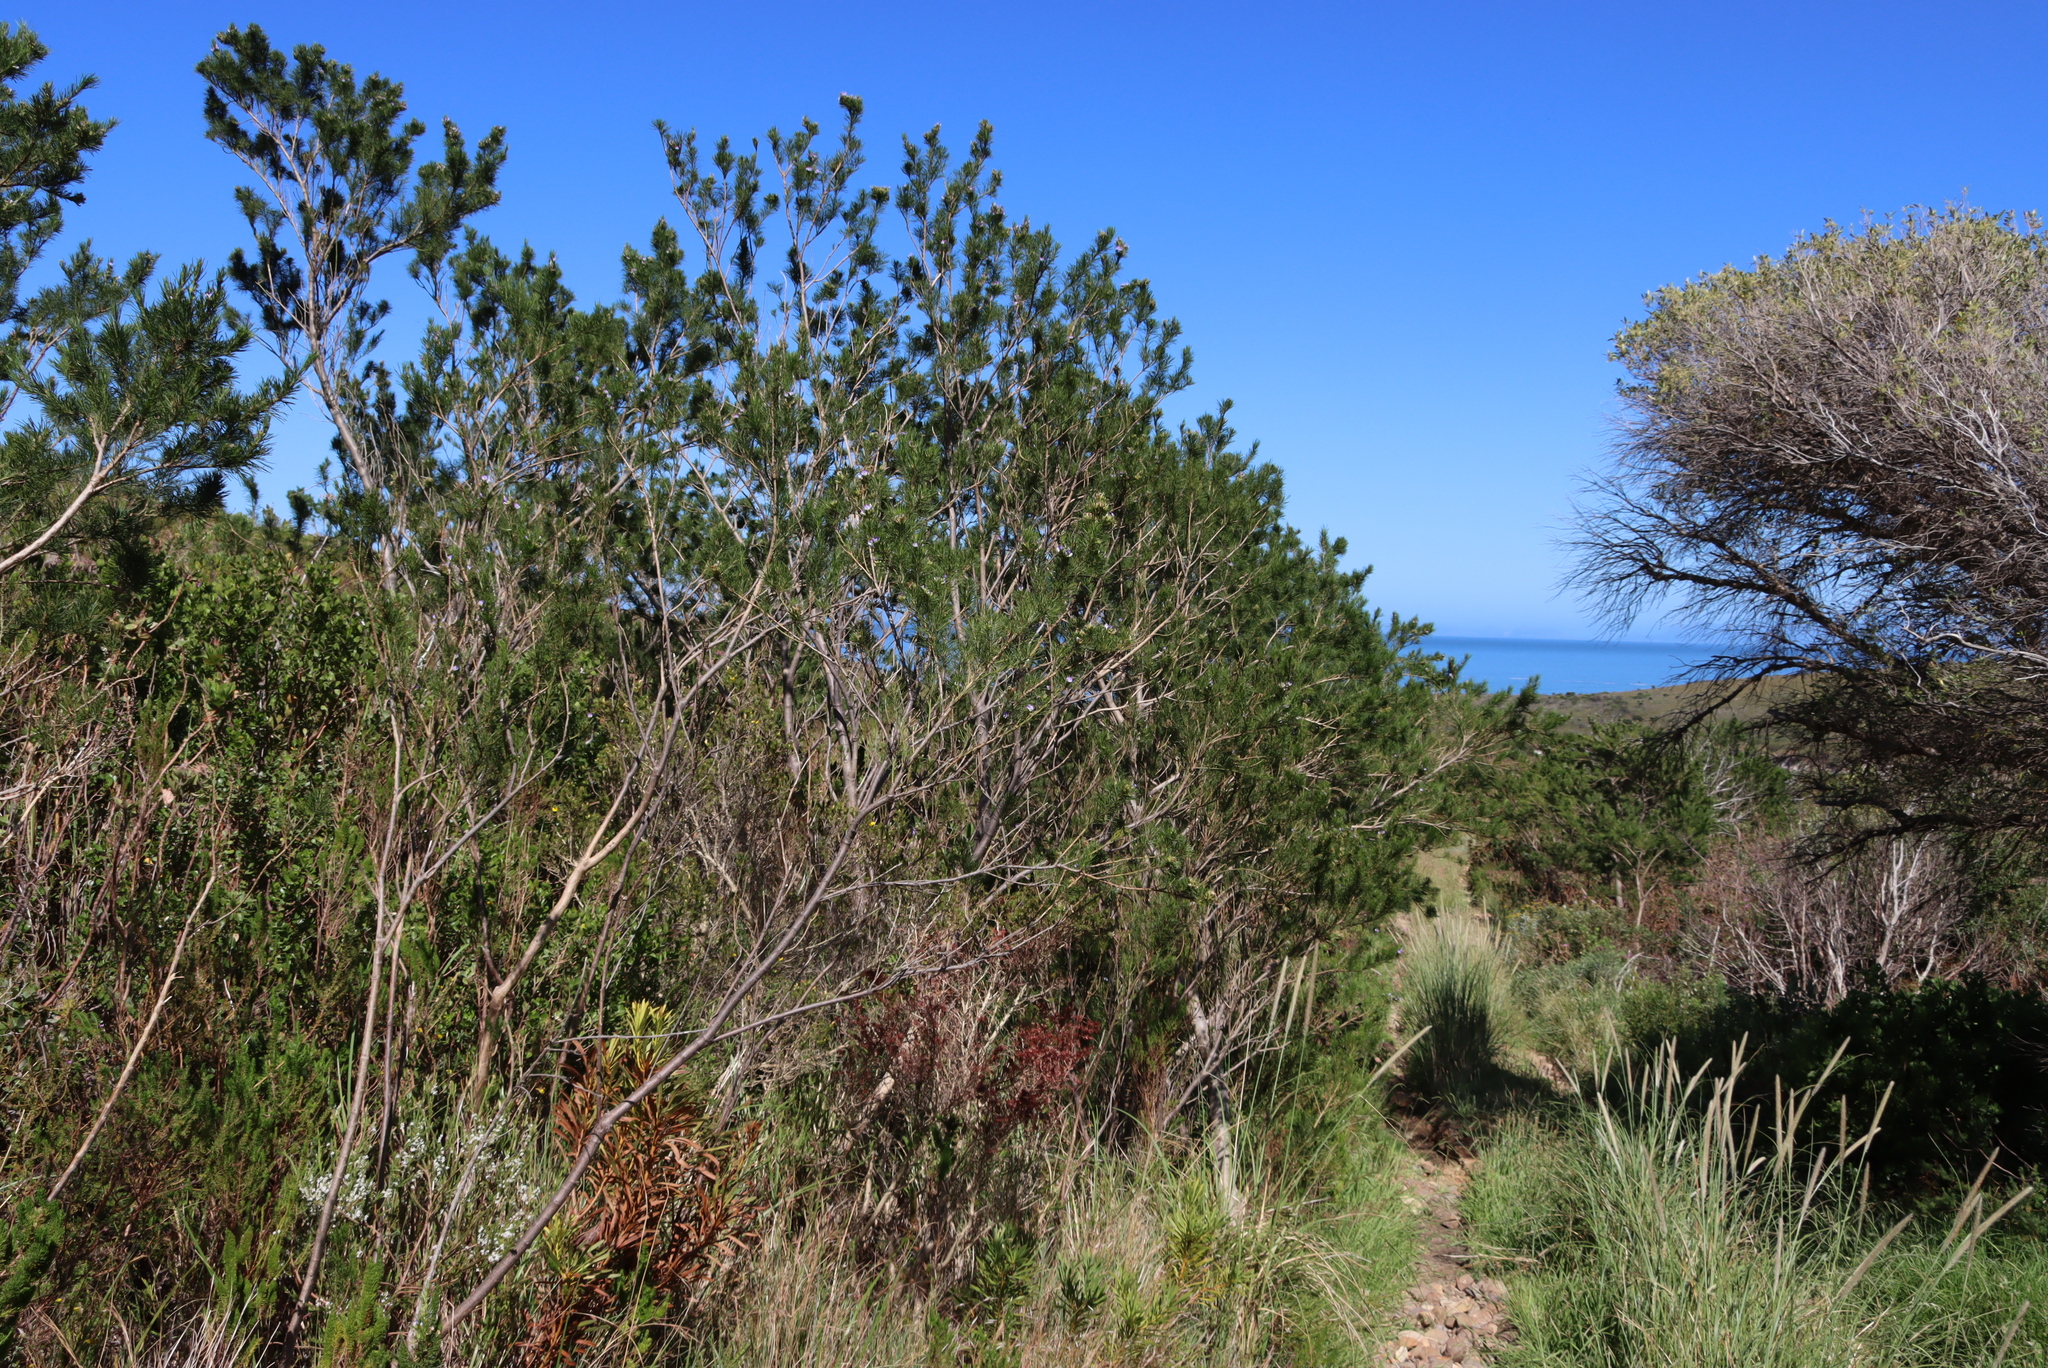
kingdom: Plantae
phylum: Tracheophyta
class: Magnoliopsida
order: Fabales
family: Fabaceae
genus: Psoralea
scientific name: Psoralea pinnata
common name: African scurfpea
